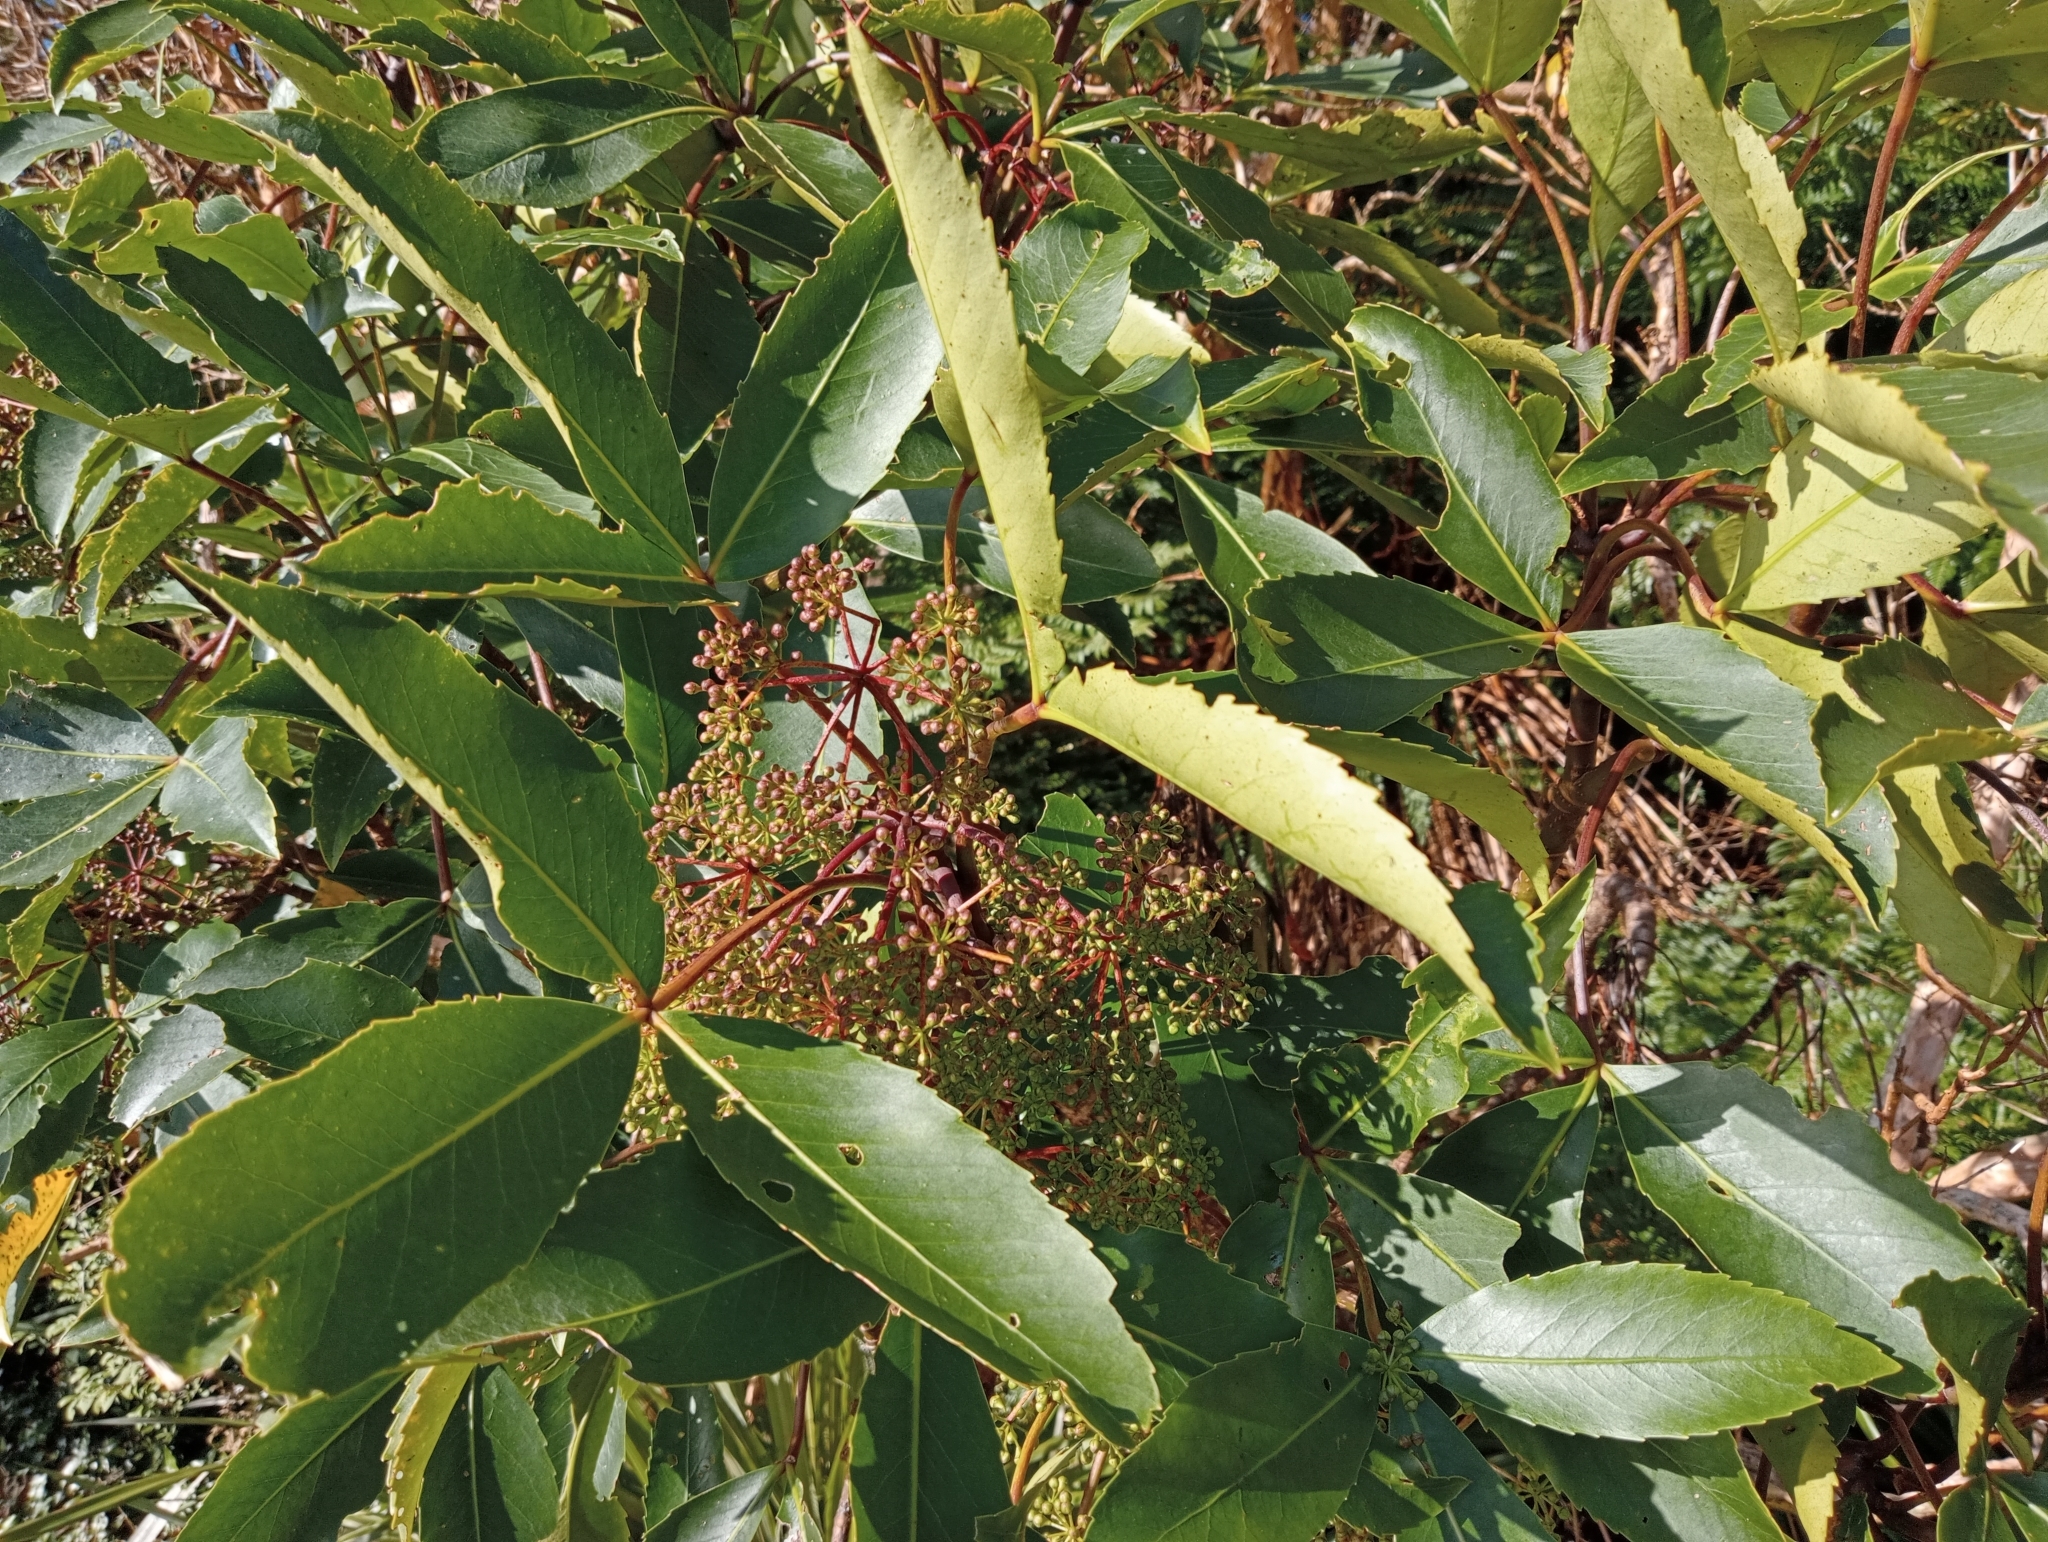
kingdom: Plantae
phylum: Tracheophyta
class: Magnoliopsida
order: Apiales
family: Araliaceae
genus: Neopanax
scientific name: Neopanax colensoi
